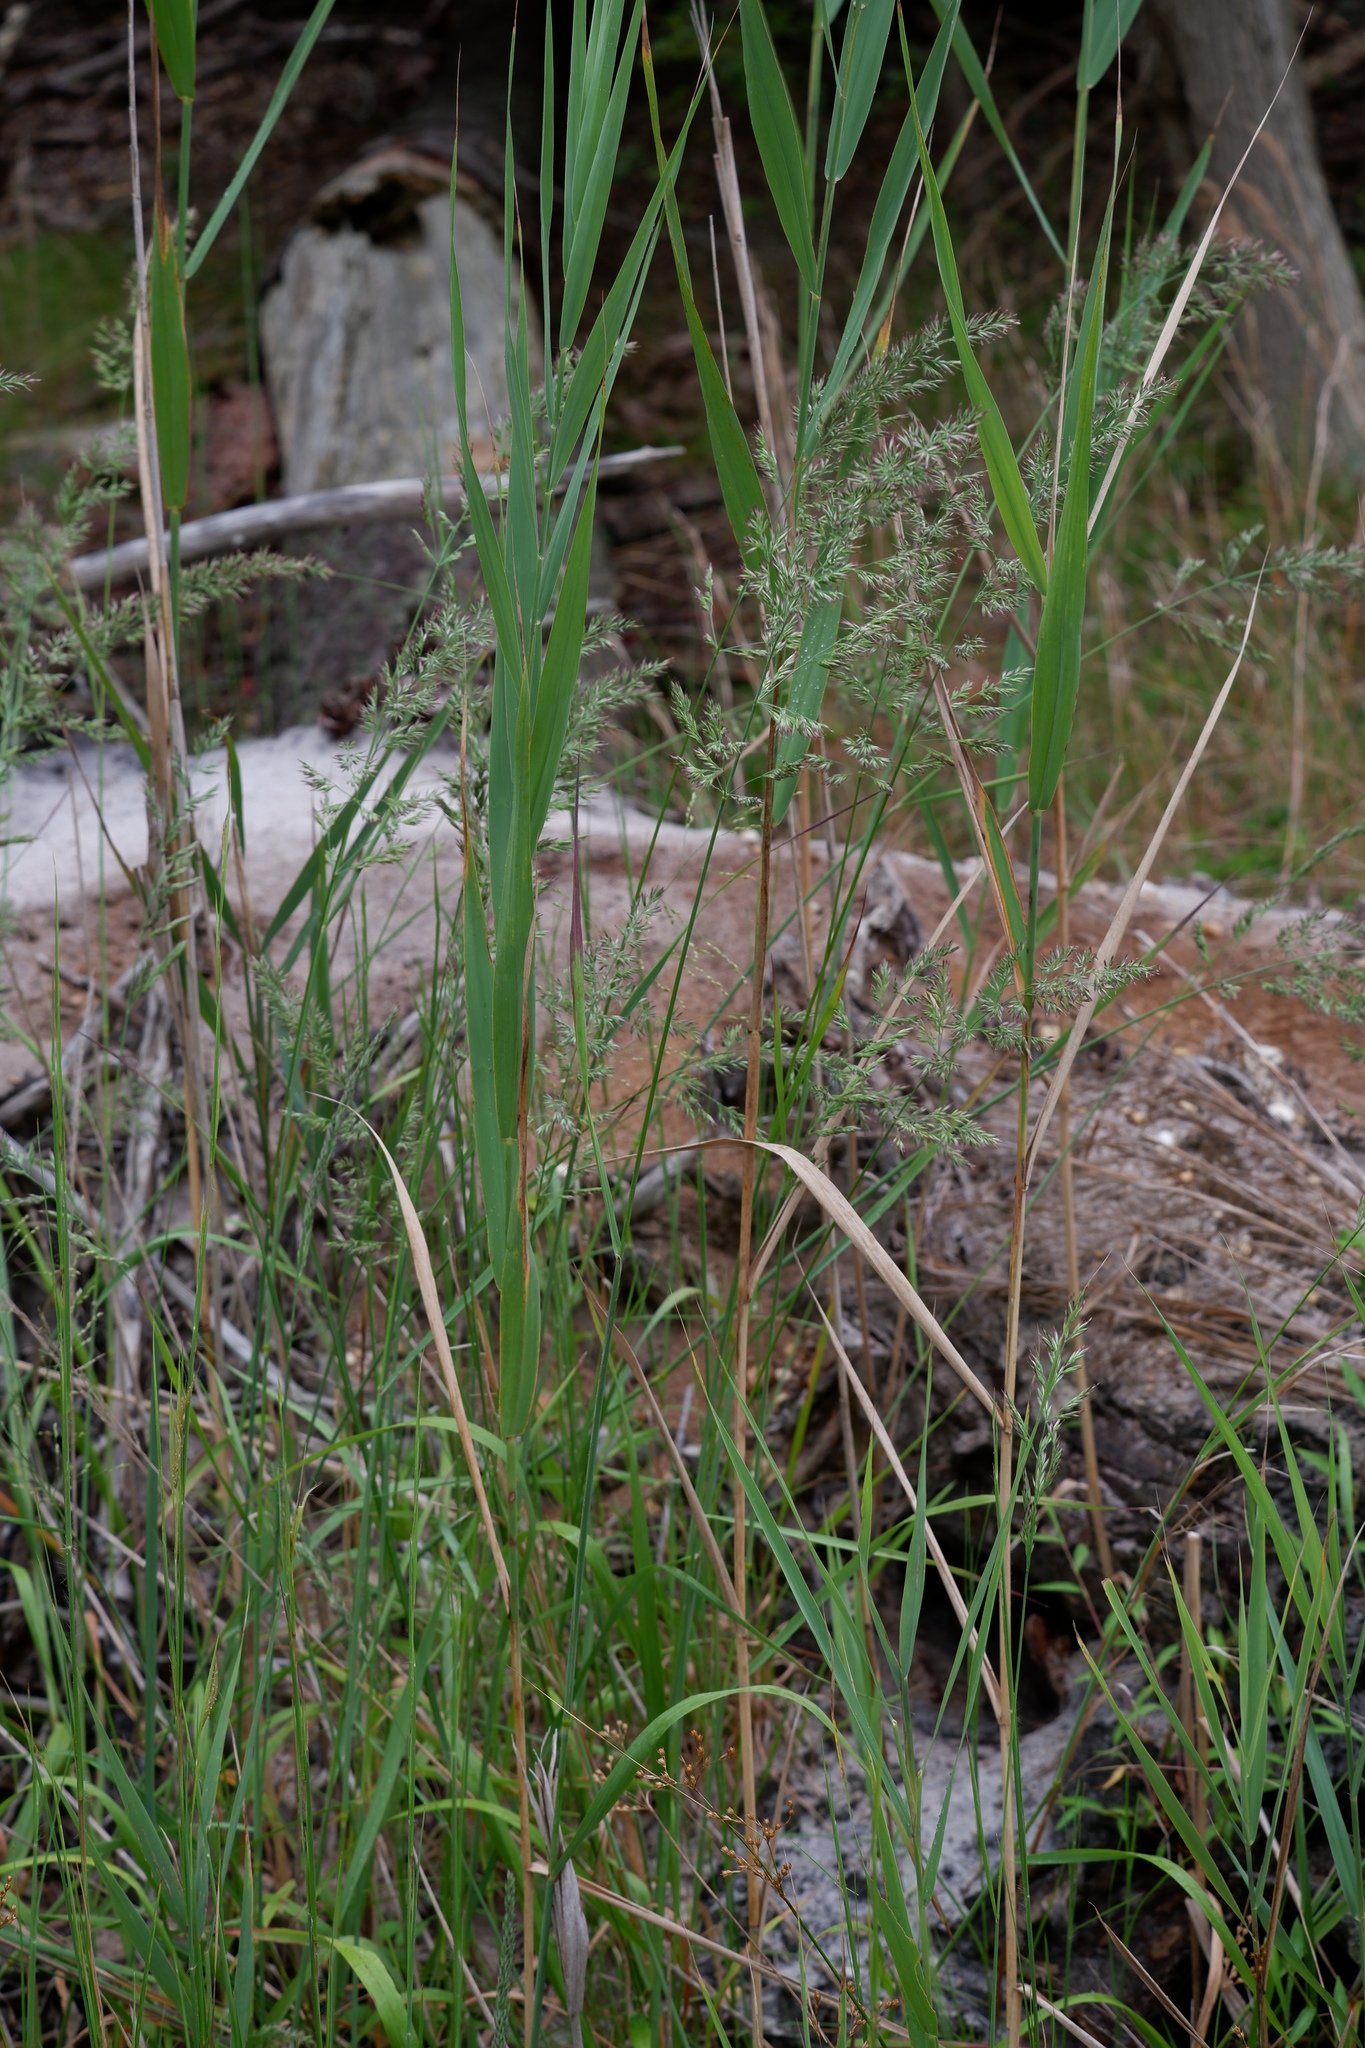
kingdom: Plantae
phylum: Tracheophyta
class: Liliopsida
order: Poales
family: Poaceae
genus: Greeneochloa
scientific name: Greeneochloa coarctata
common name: Small reedgrass
